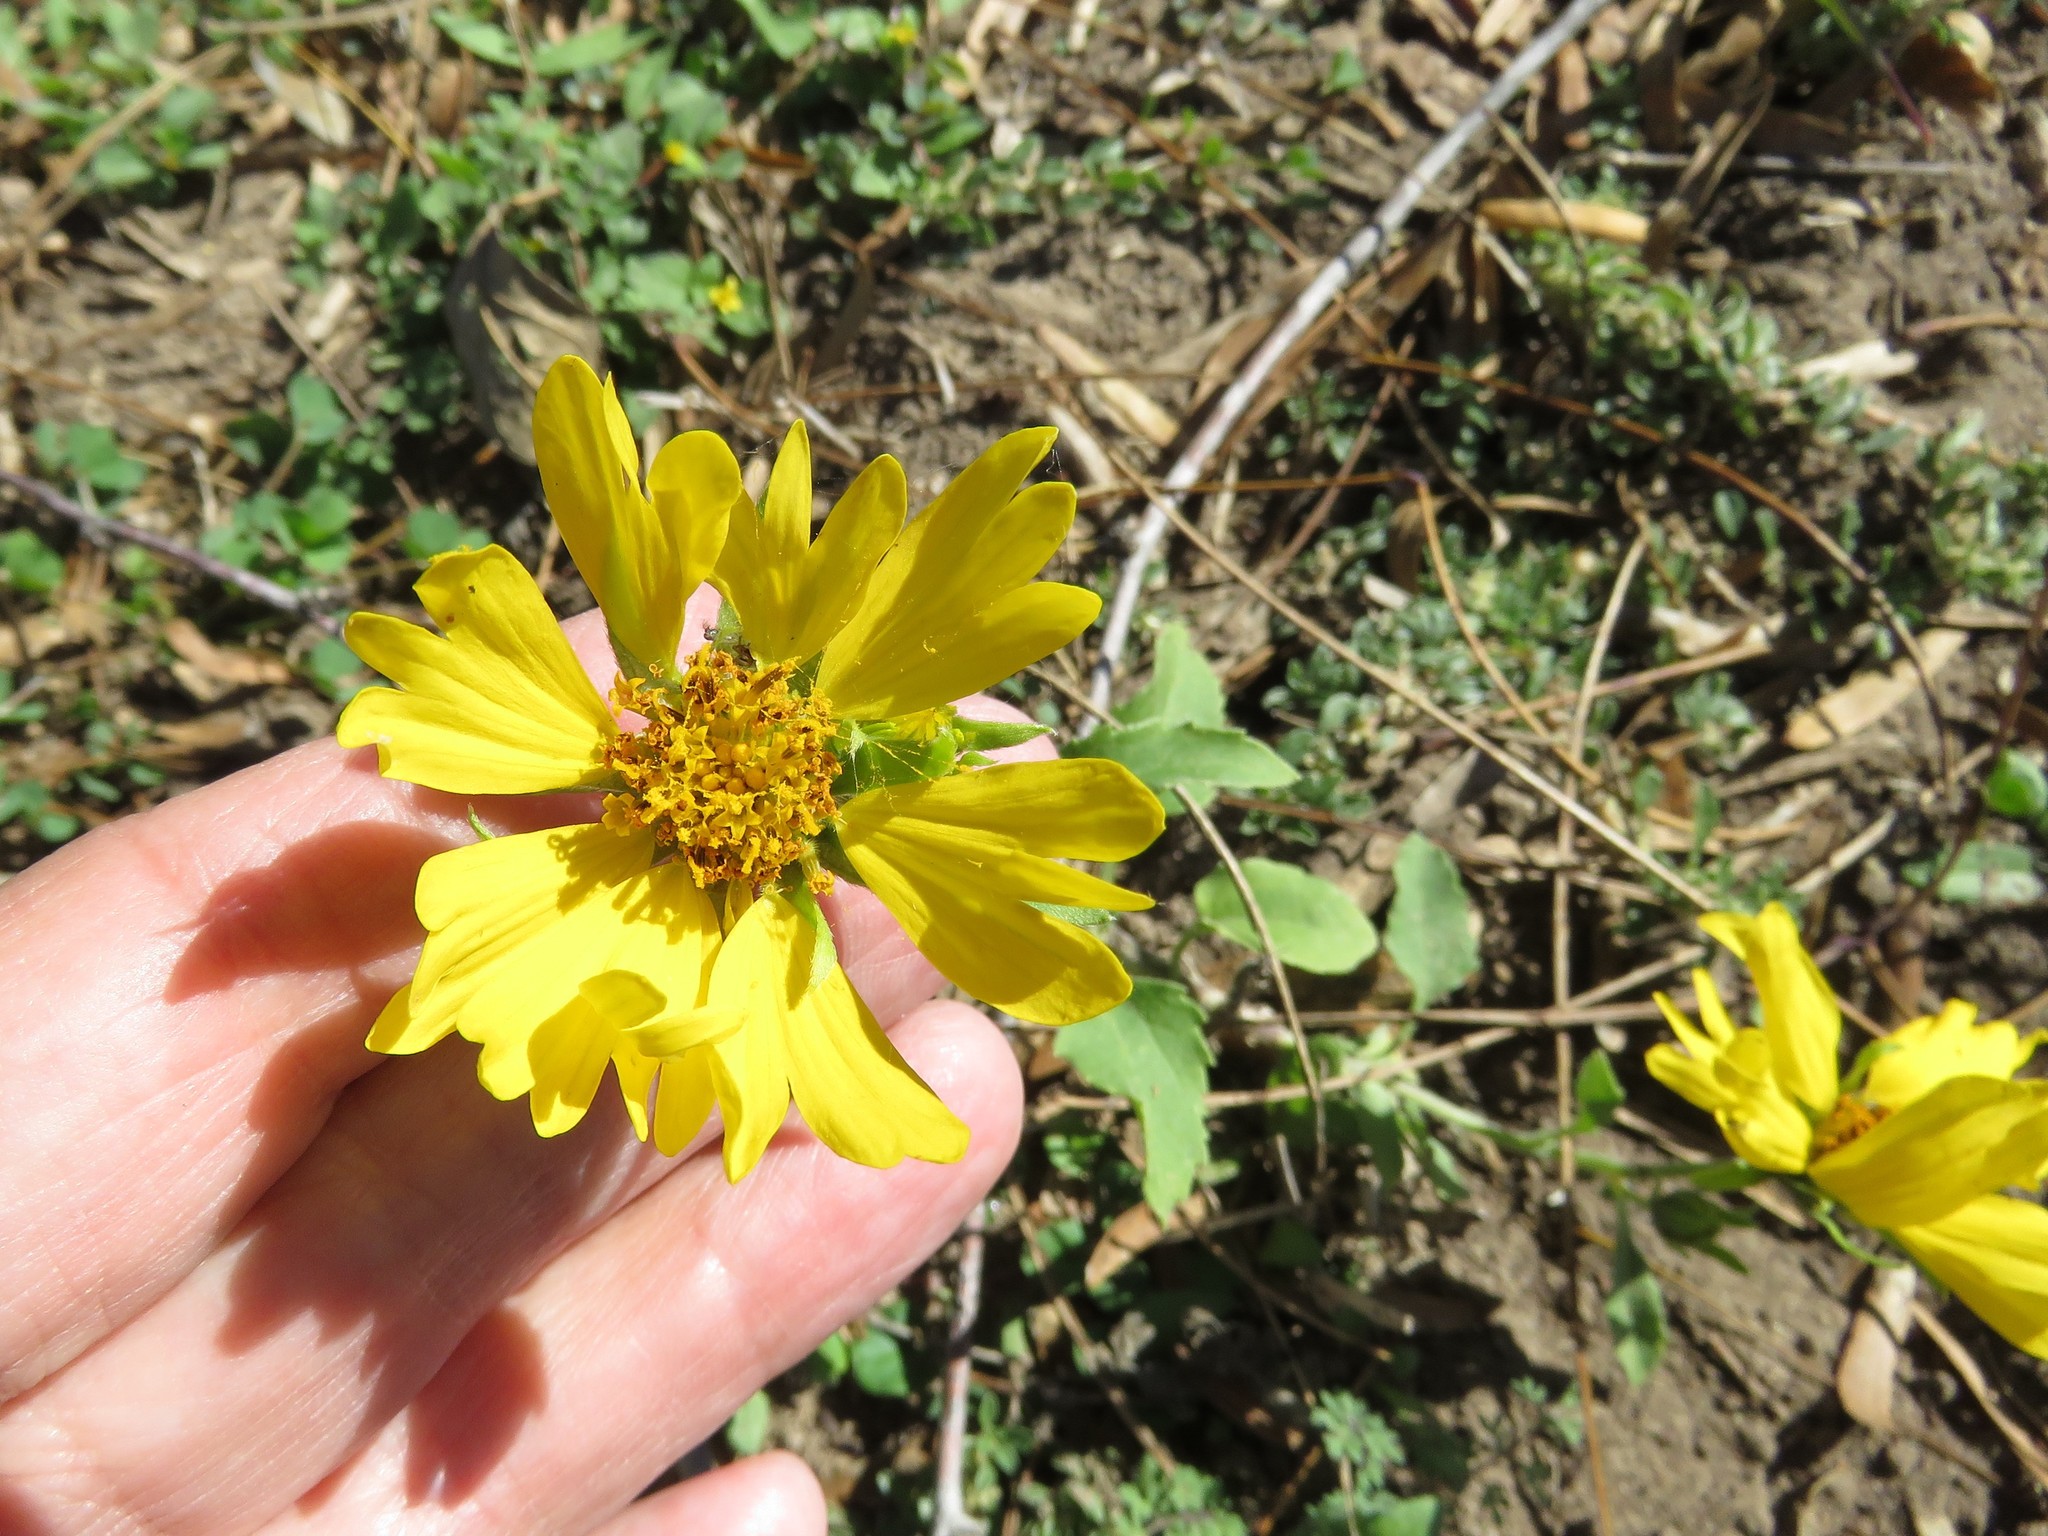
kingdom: Plantae
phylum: Tracheophyta
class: Magnoliopsida
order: Asterales
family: Asteraceae
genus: Verbesina
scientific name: Verbesina encelioides
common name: Golden crownbeard
